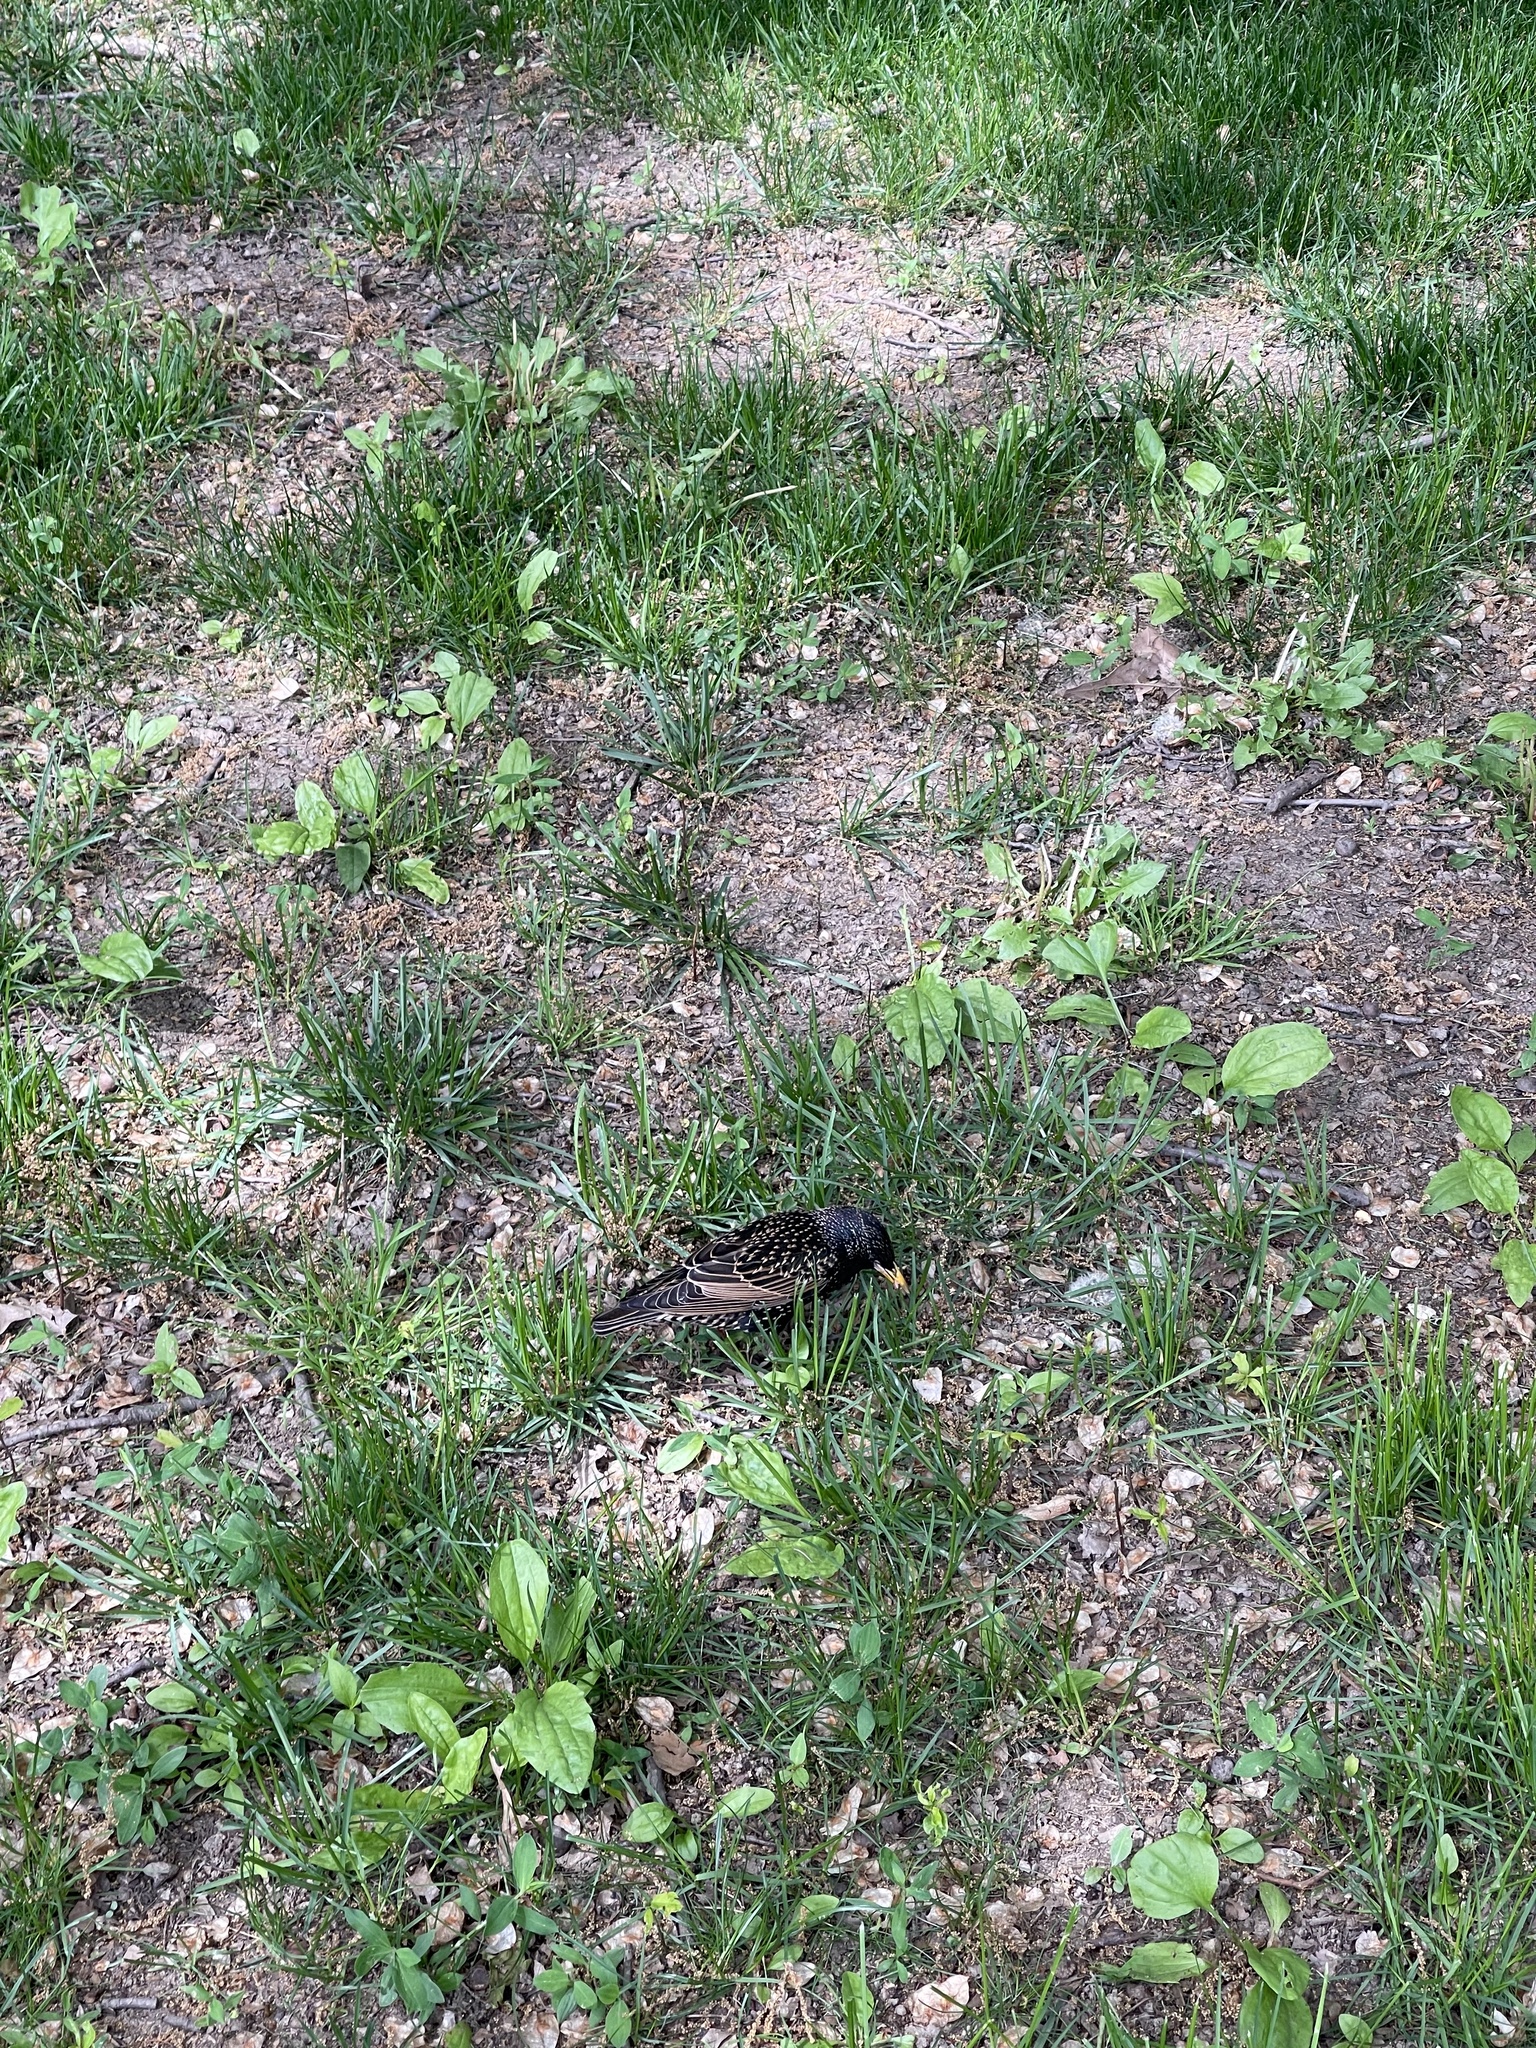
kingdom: Animalia
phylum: Chordata
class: Aves
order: Passeriformes
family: Sturnidae
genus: Sturnus
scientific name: Sturnus vulgaris
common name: Common starling
